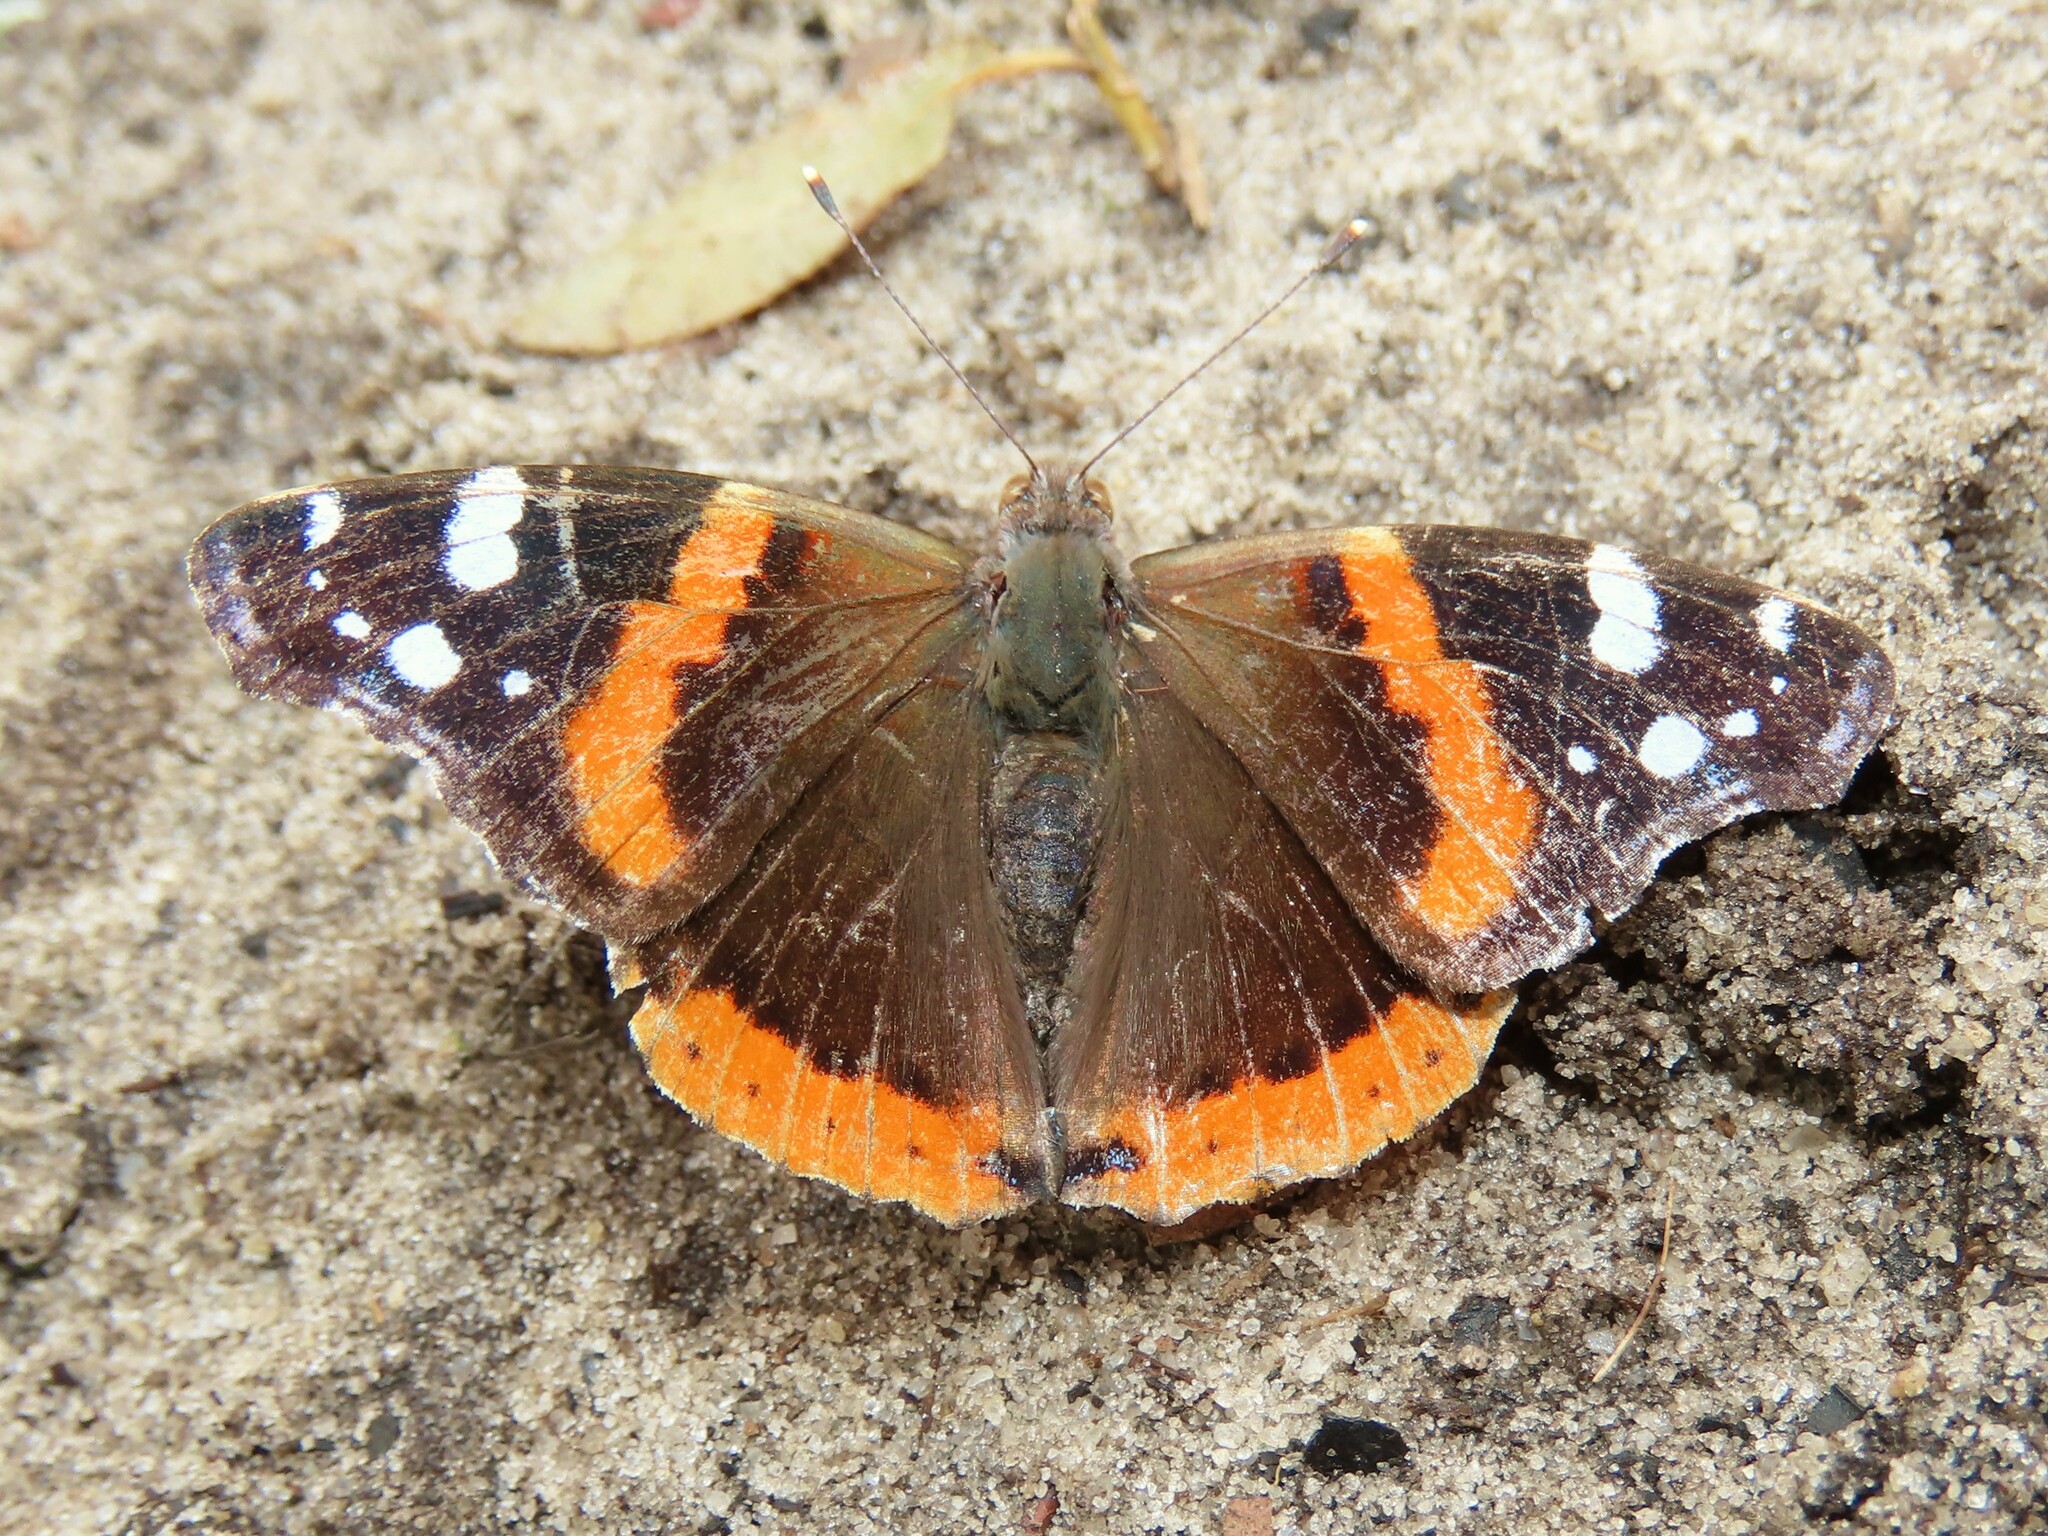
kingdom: Animalia
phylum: Arthropoda
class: Insecta
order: Lepidoptera
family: Nymphalidae
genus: Vanessa
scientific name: Vanessa atalanta
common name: Red admiral
